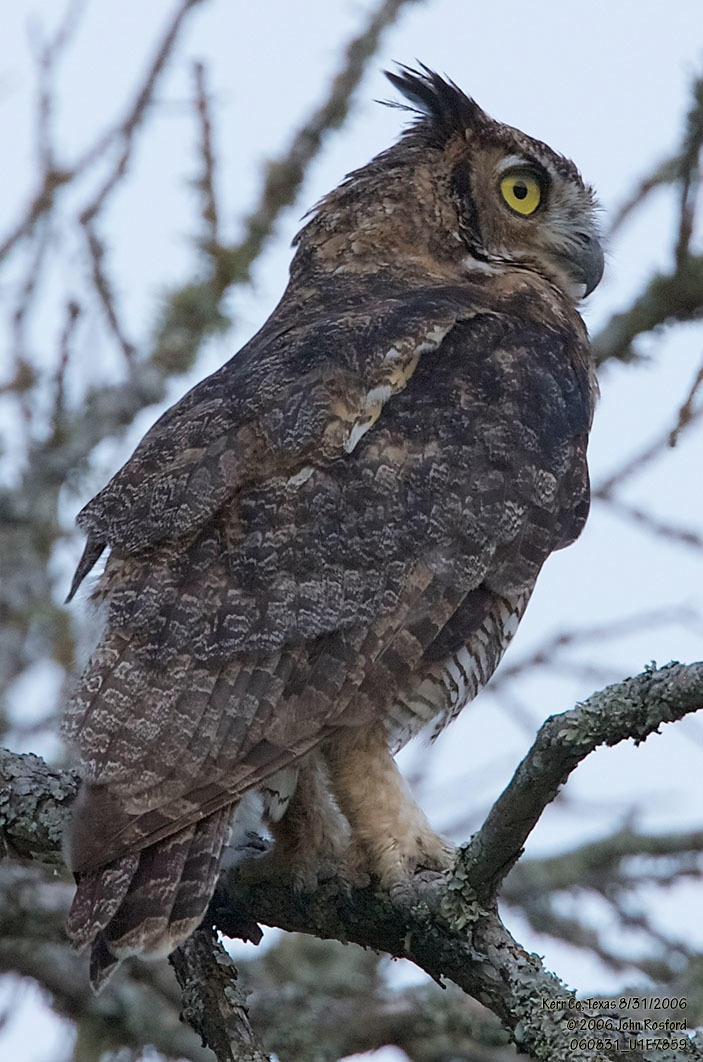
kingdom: Animalia
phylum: Chordata
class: Aves
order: Strigiformes
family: Strigidae
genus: Bubo
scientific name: Bubo virginianus
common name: Great horned owl
